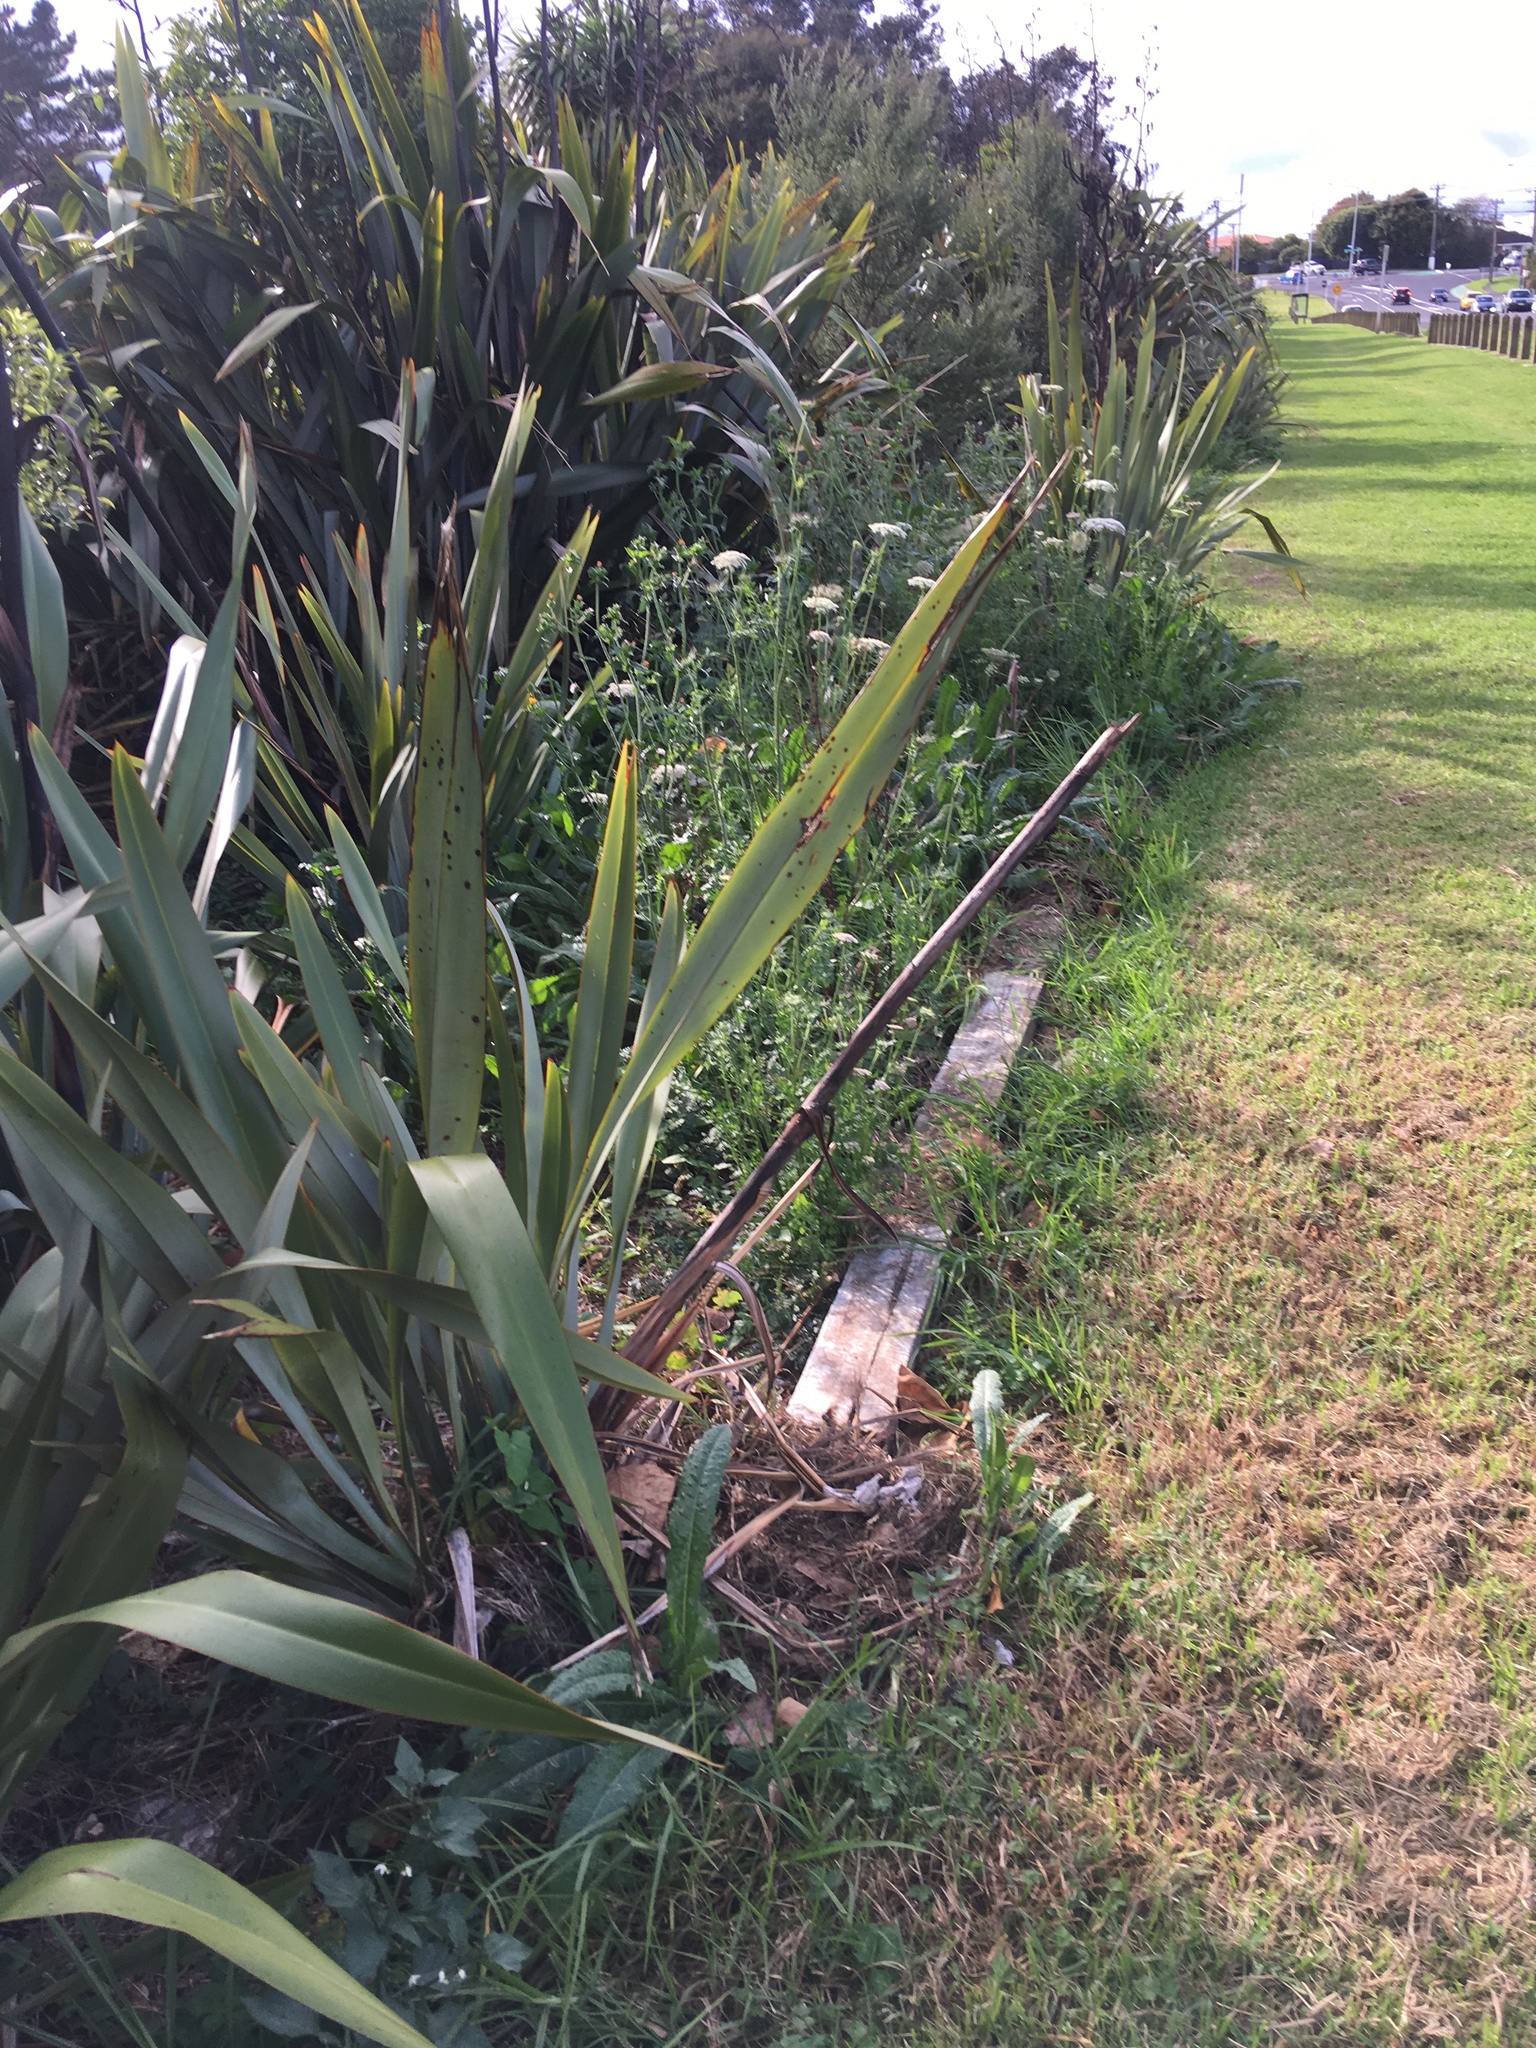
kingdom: Plantae
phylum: Tracheophyta
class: Liliopsida
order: Poales
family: Poaceae
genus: Cenchrus
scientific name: Cenchrus clandestinus
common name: Kikuyugrass
